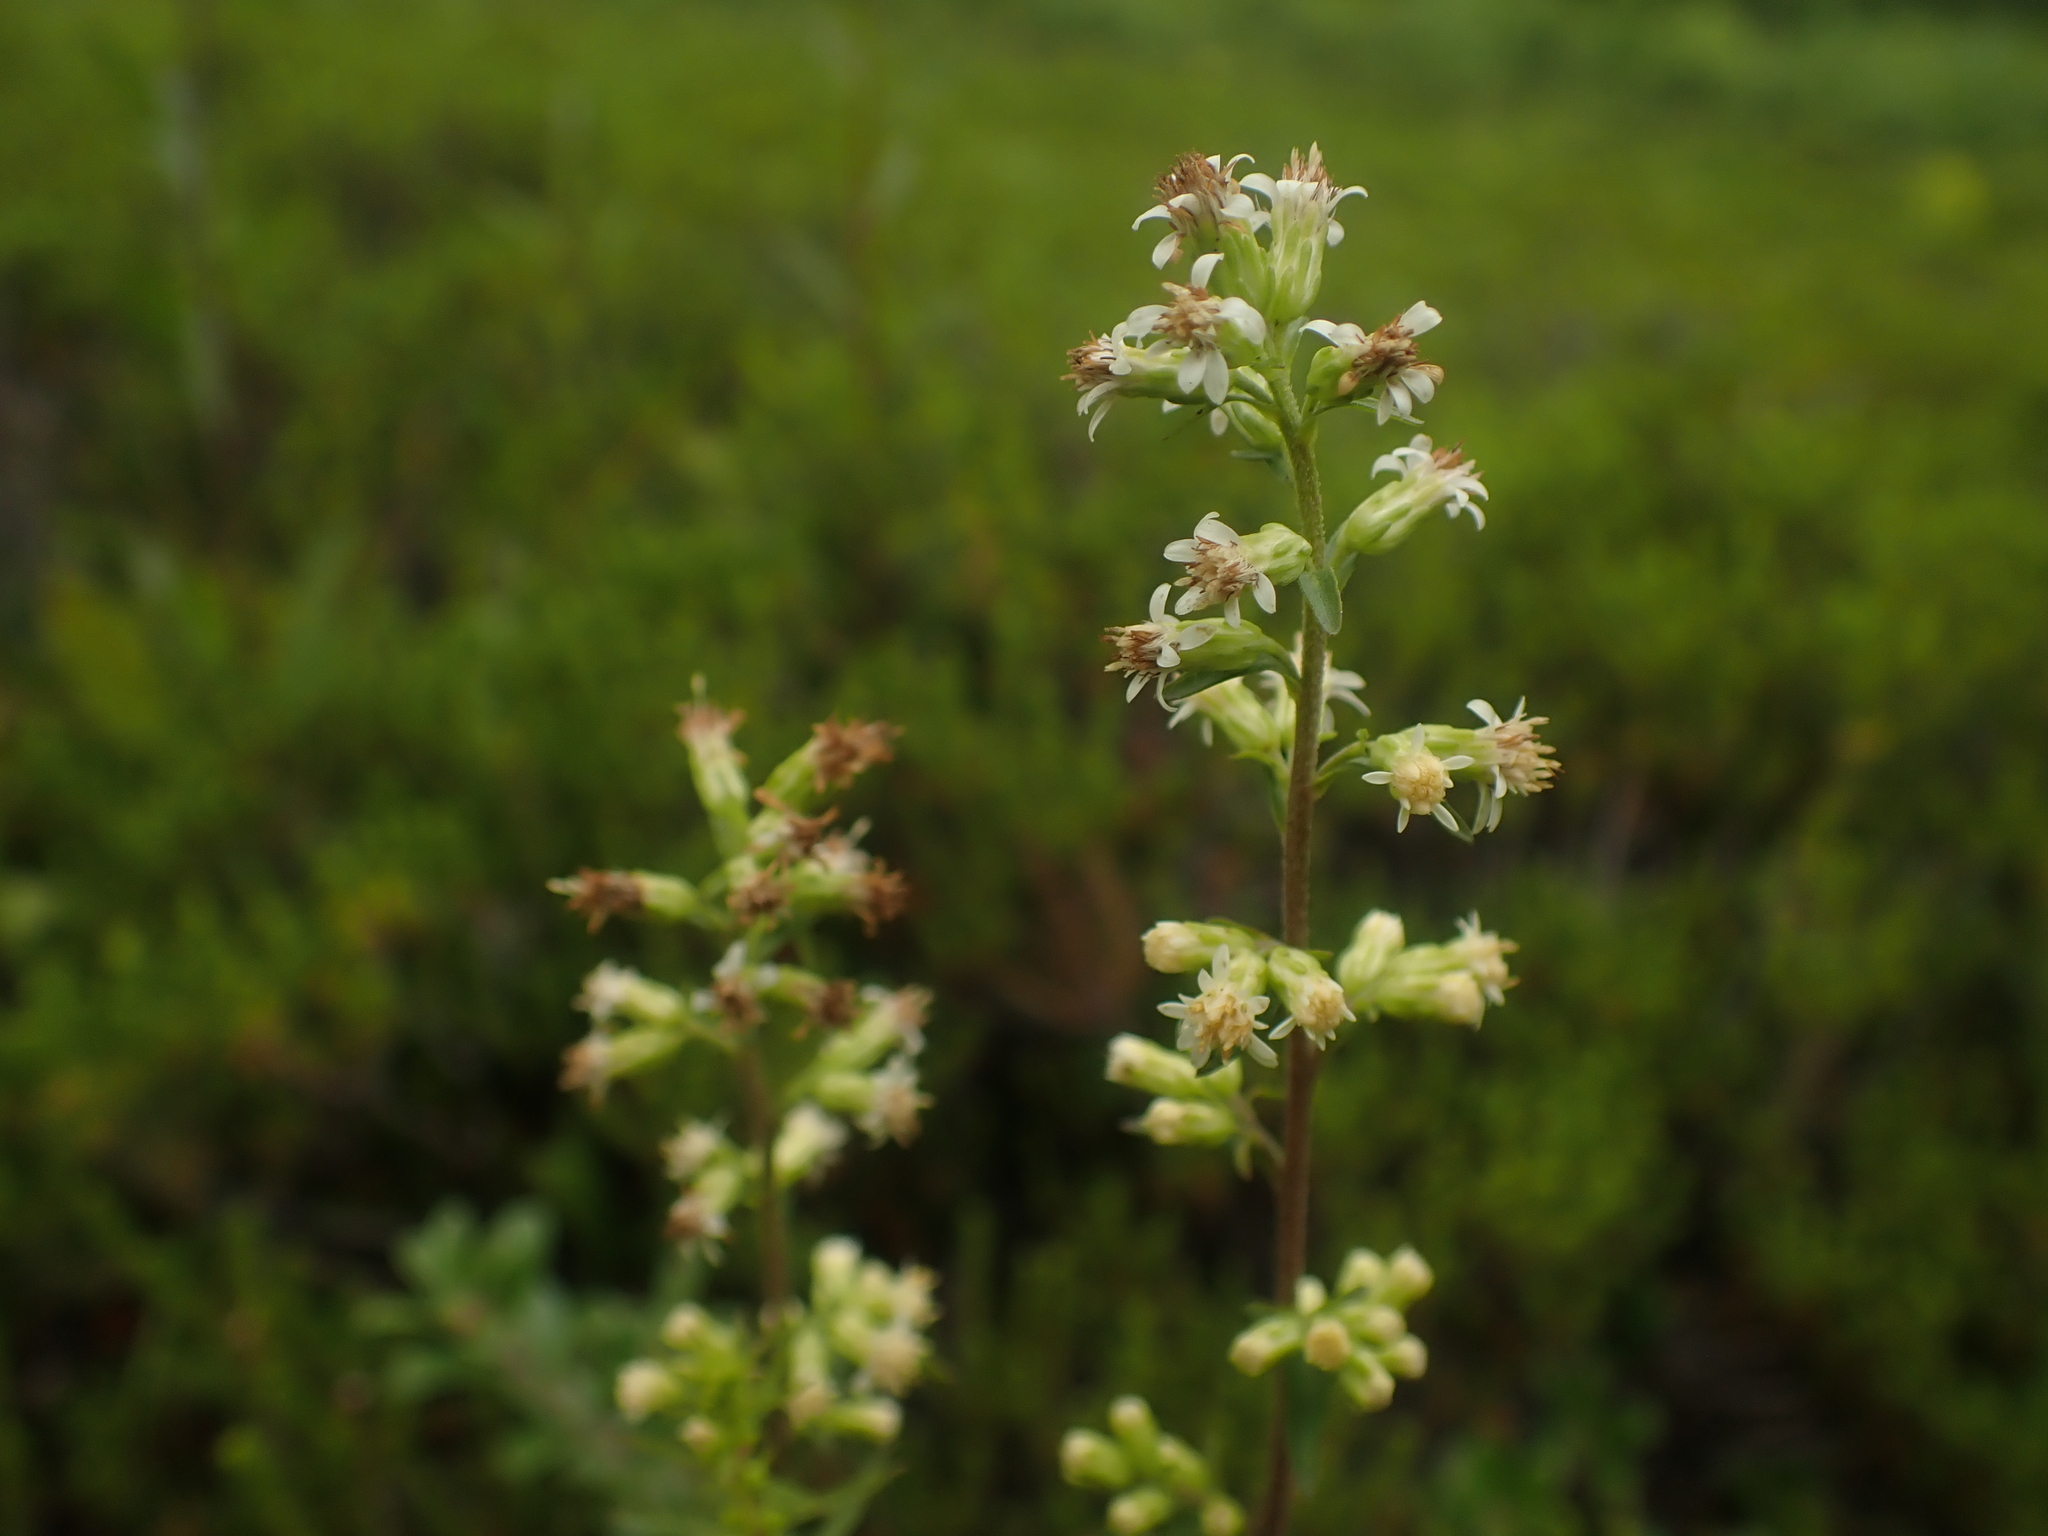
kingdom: Plantae
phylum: Tracheophyta
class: Magnoliopsida
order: Asterales
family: Asteraceae
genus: Solidago
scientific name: Solidago bicolor
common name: Silverrod
